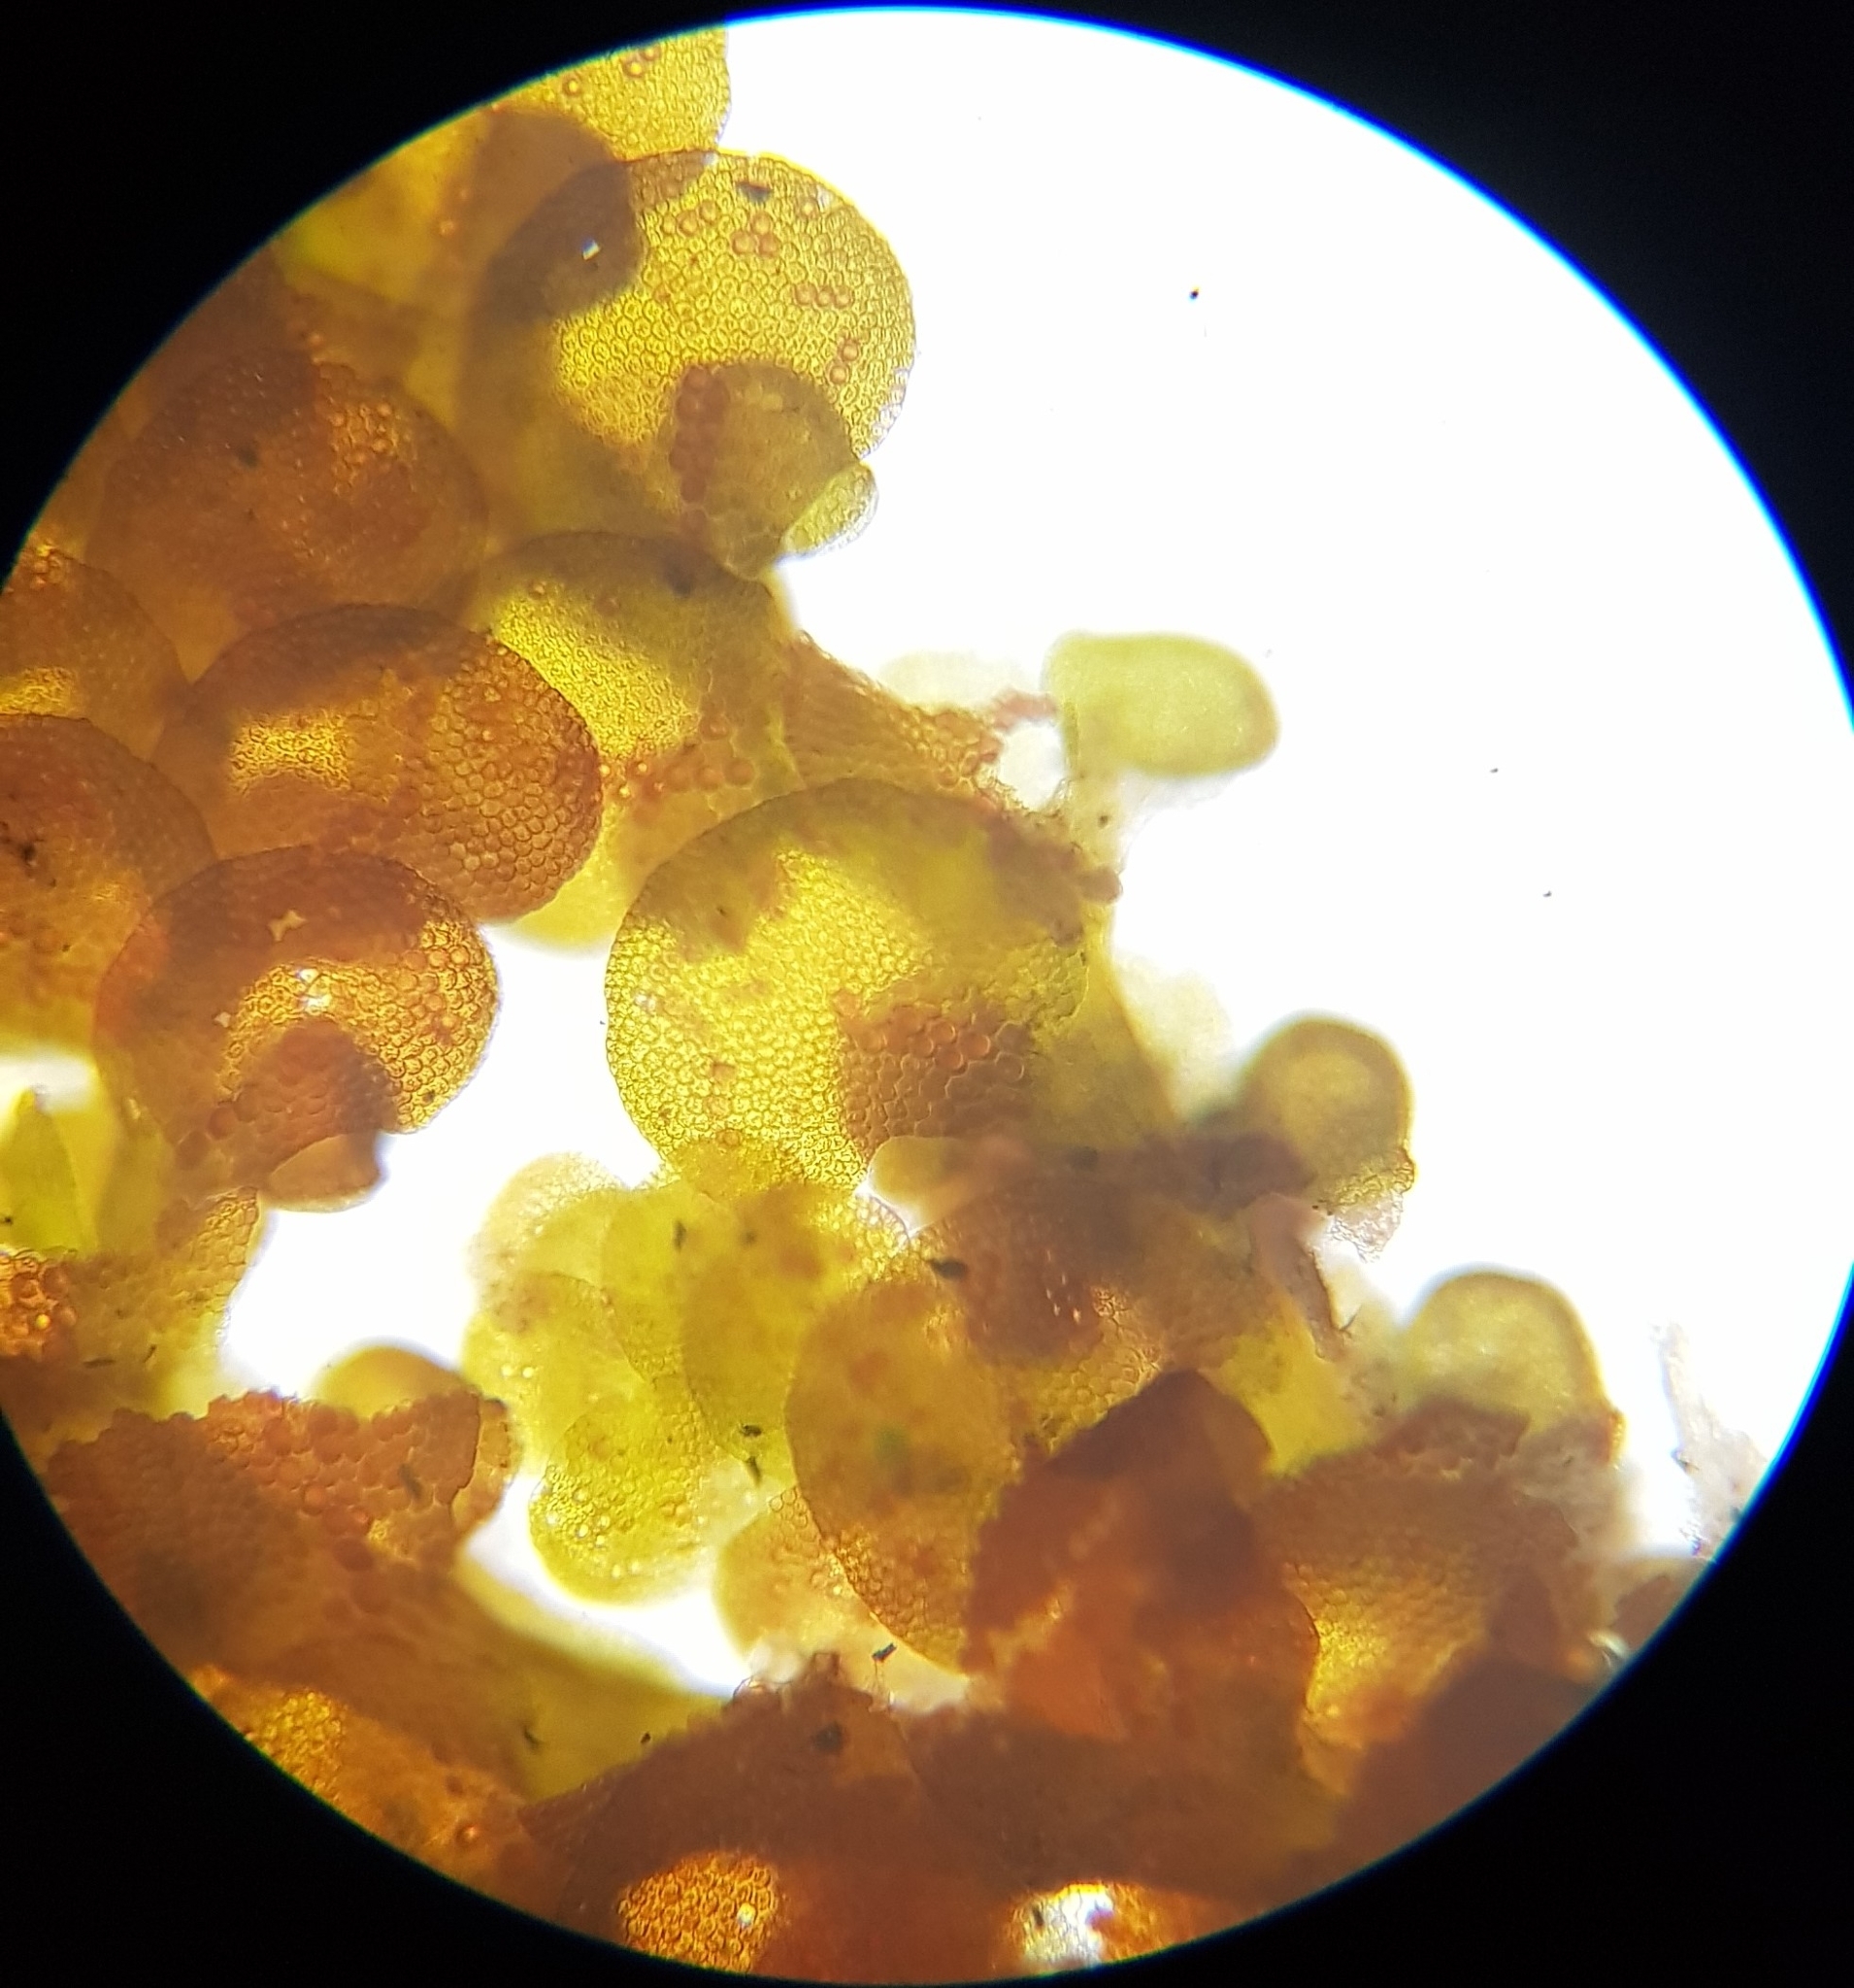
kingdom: Plantae
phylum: Marchantiophyta
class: Jungermanniopsida
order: Porellales
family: Frullaniaceae
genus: Frullania
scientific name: Frullania fragilifolia
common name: Spotty scalewort
